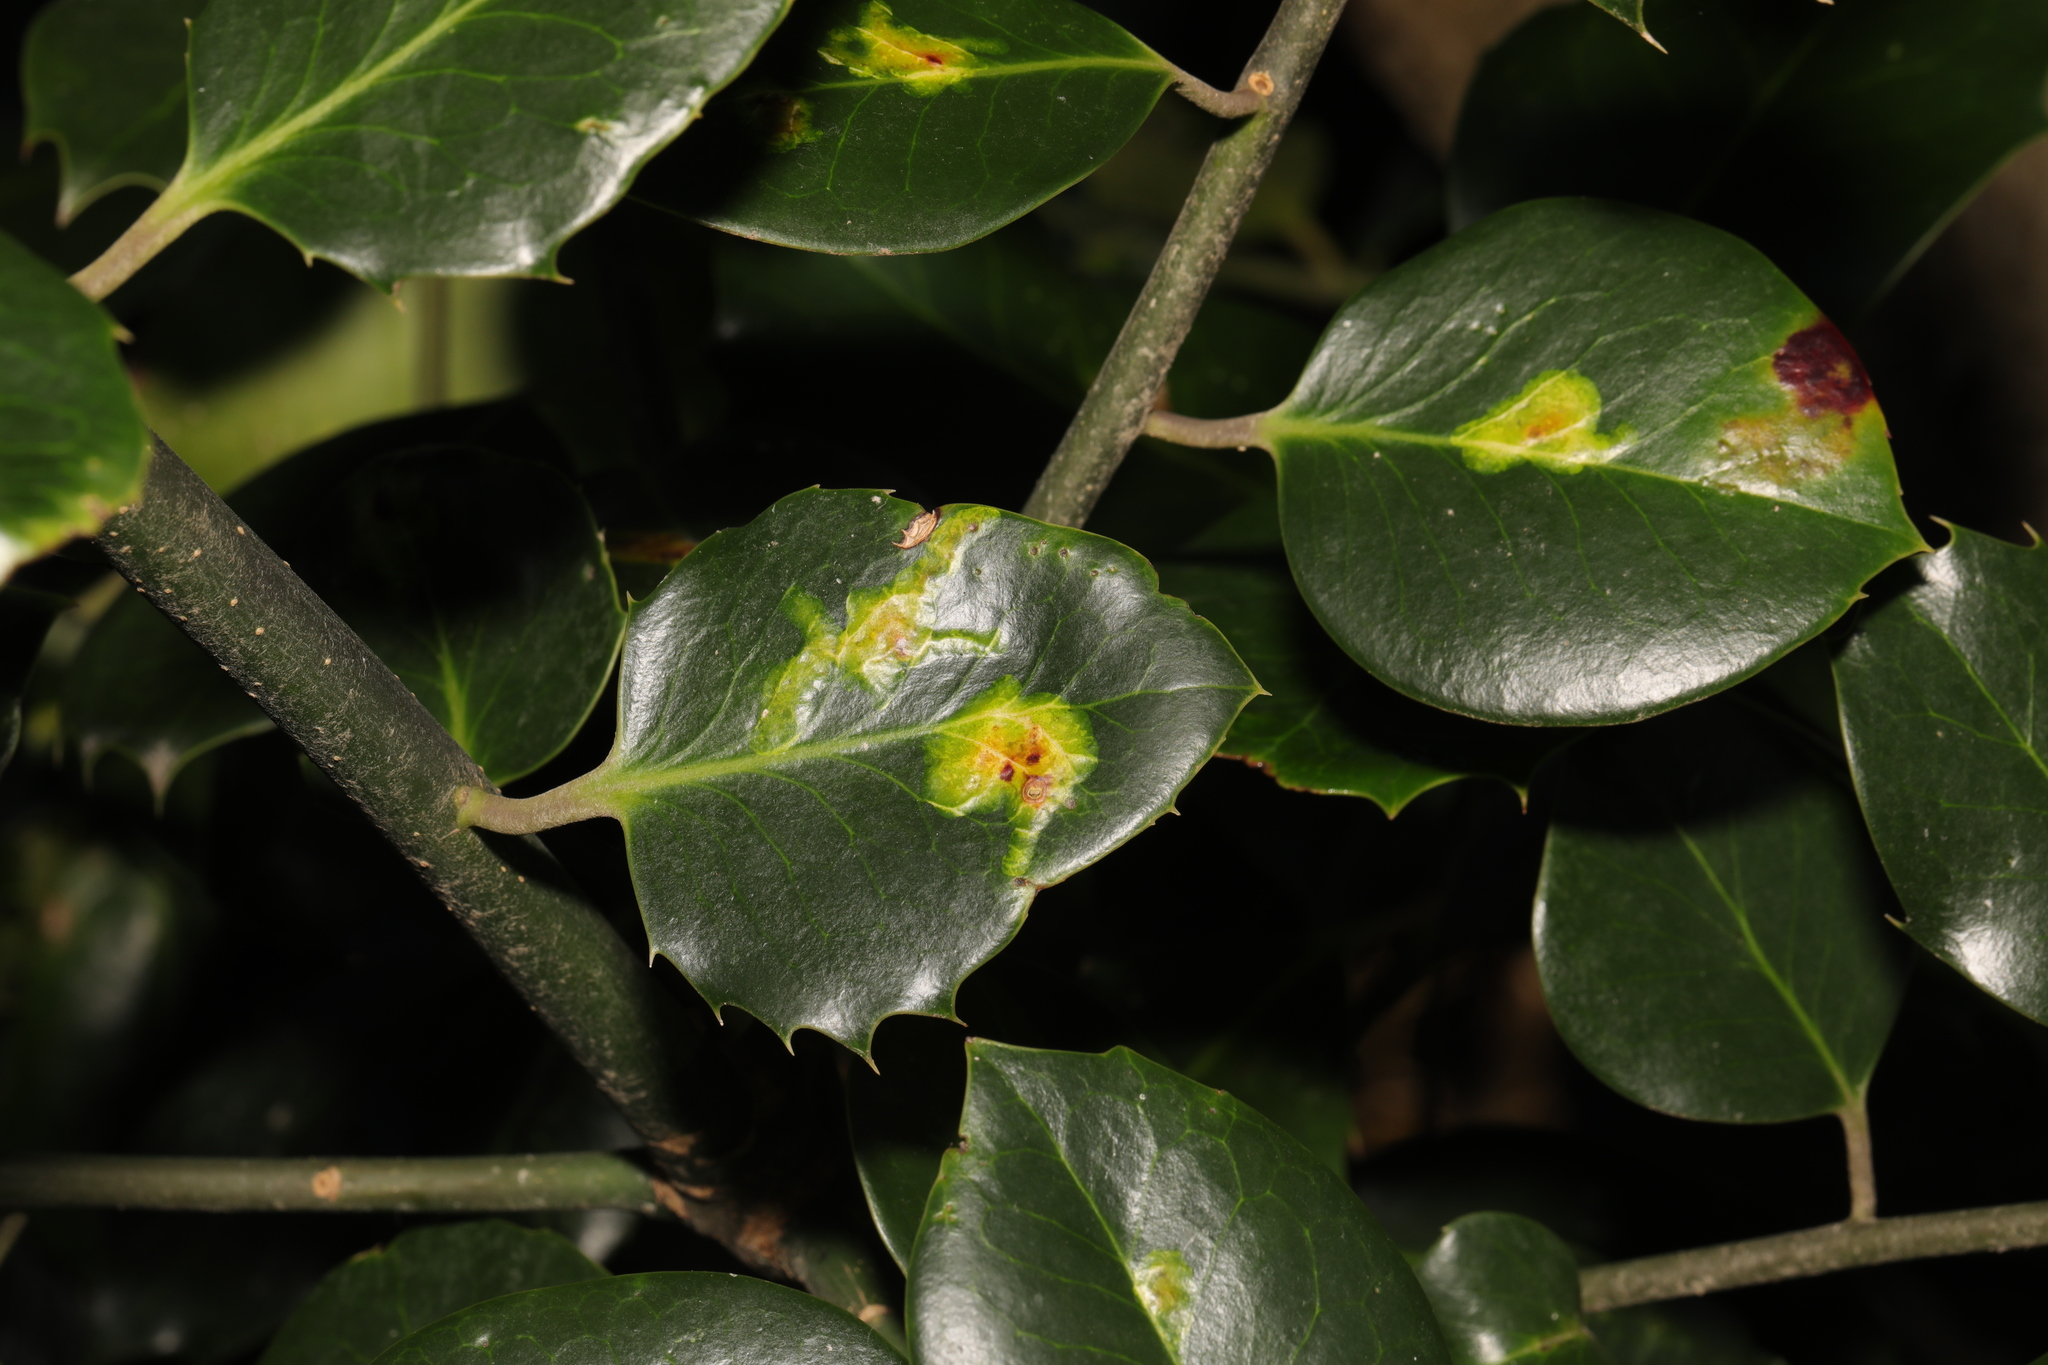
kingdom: Animalia
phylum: Arthropoda
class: Insecta
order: Diptera
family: Agromyzidae
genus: Phytomyza
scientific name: Phytomyza ilicis
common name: Holly leafminer
